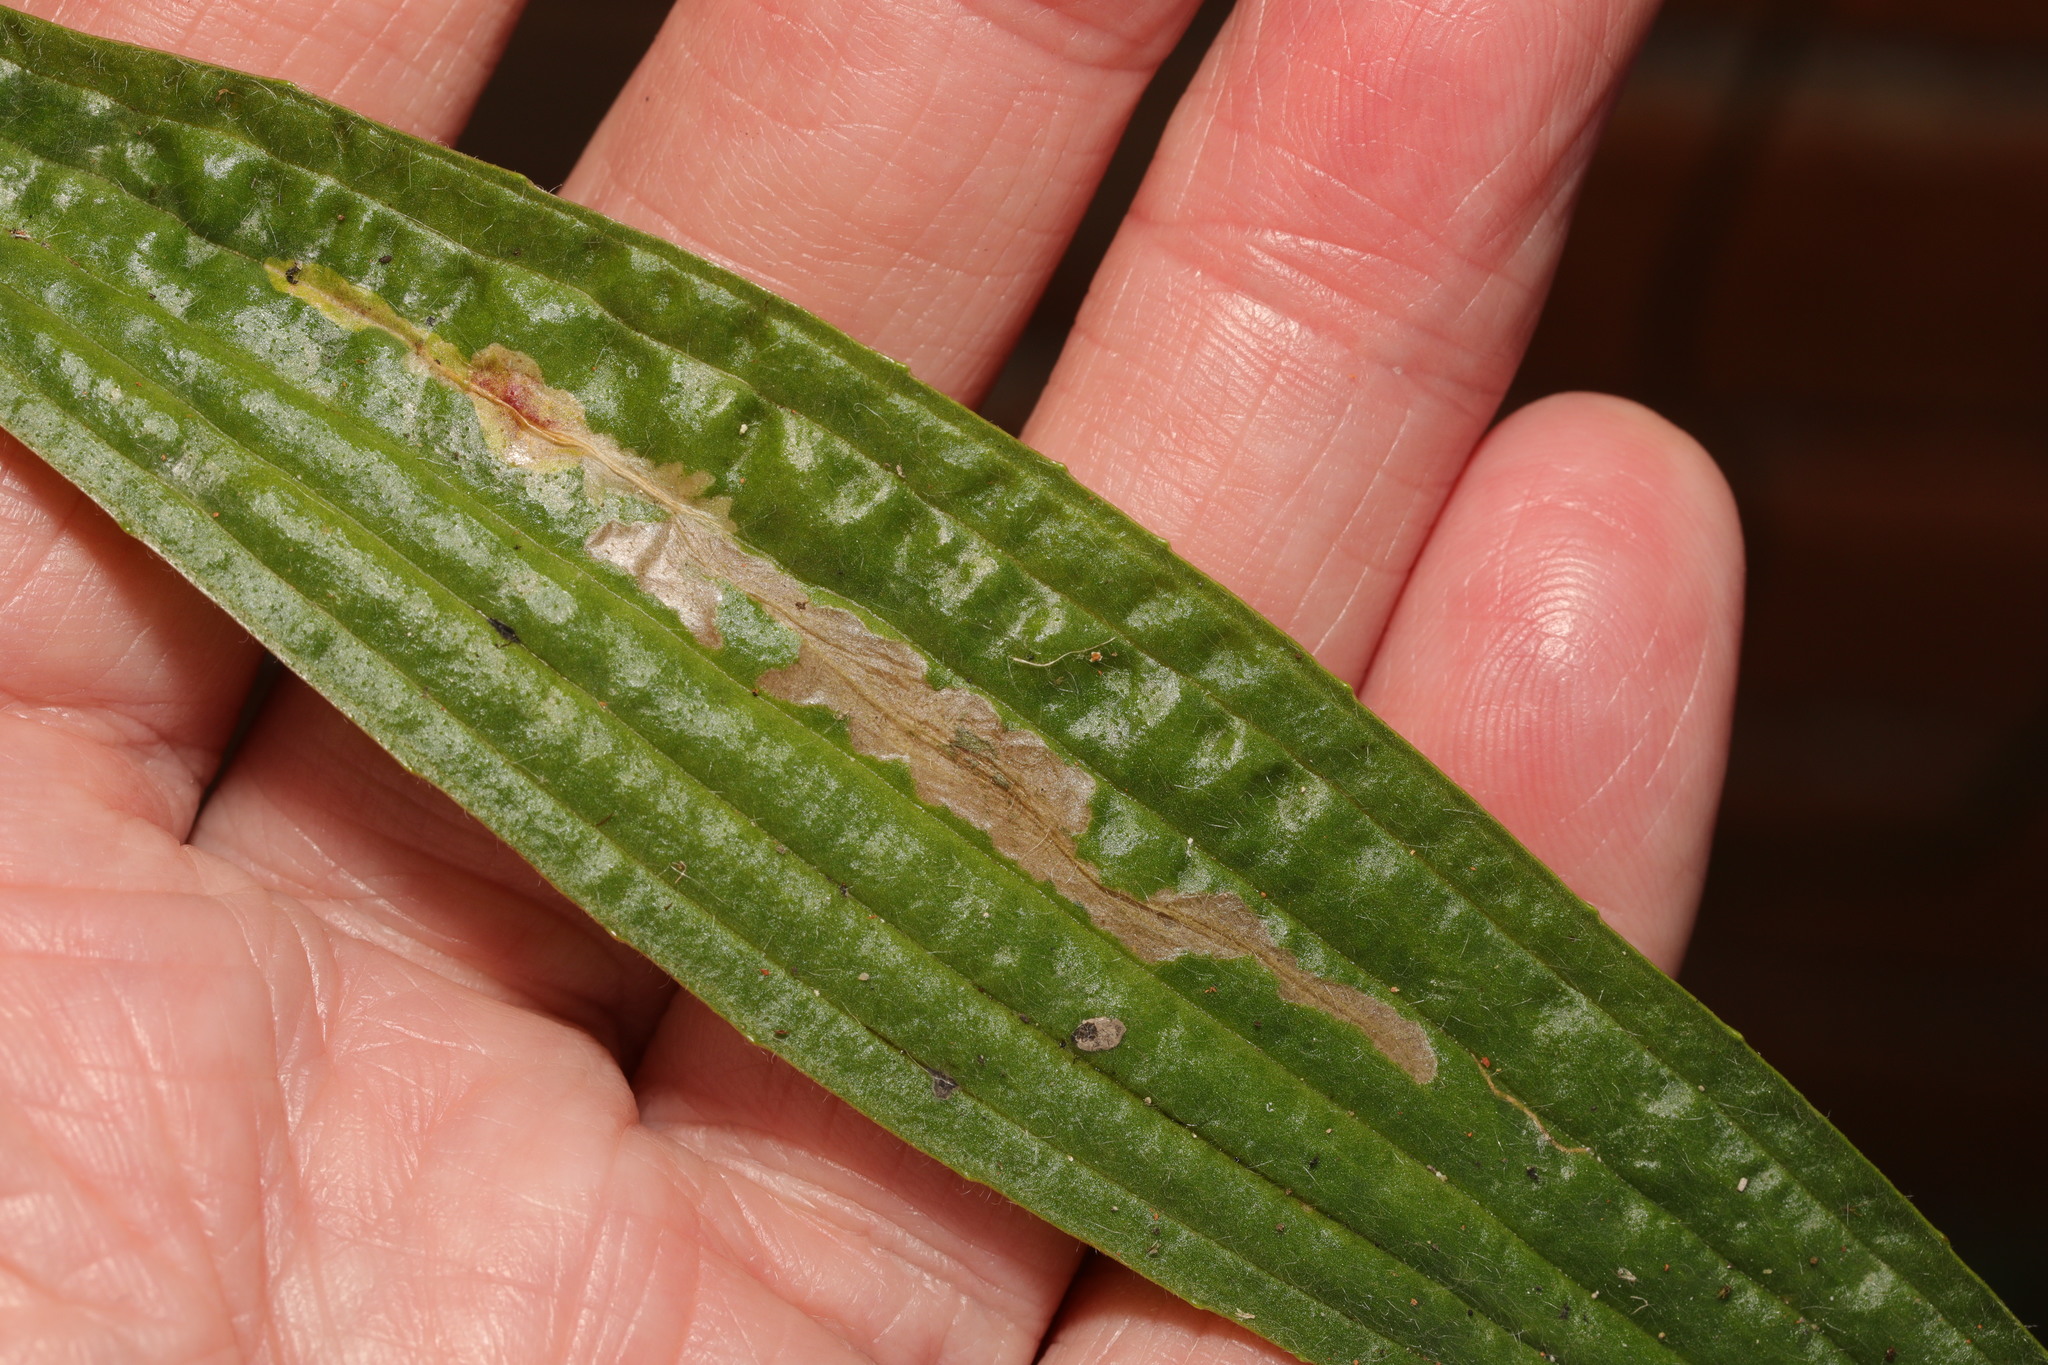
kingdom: Animalia
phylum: Arthropoda
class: Insecta
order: Lepidoptera
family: Gracillariidae
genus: Aspilapteryx
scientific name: Aspilapteryx tringipennella
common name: Ribwort slender
